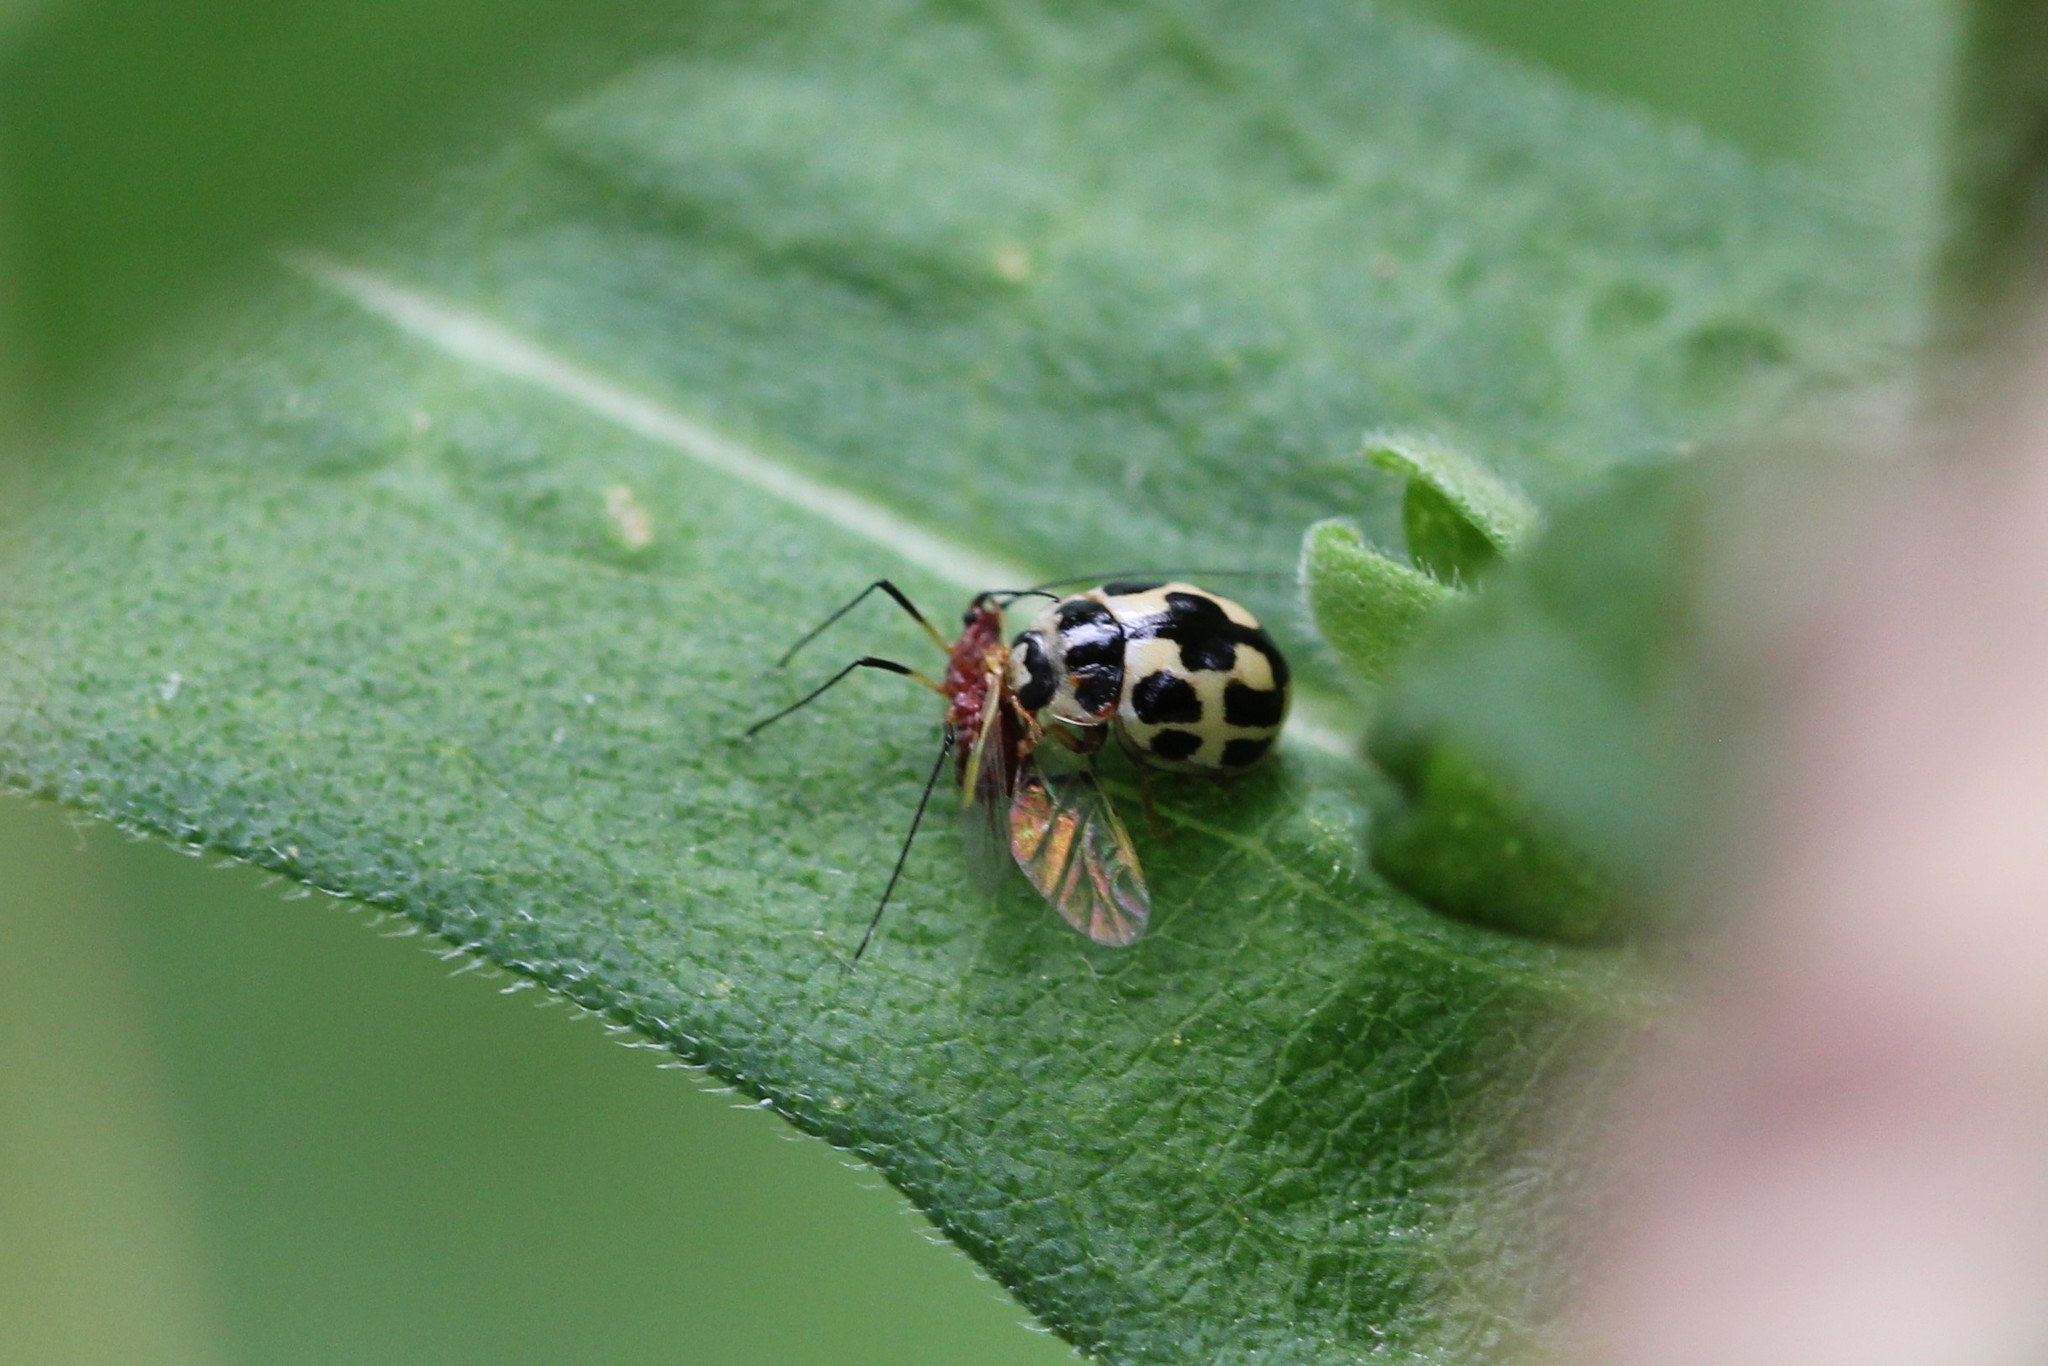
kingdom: Animalia
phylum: Arthropoda
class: Insecta
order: Coleoptera
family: Coccinellidae
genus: Propylaea
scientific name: Propylaea quatuordecimpunctata
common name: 14-spotted ladybird beetle
